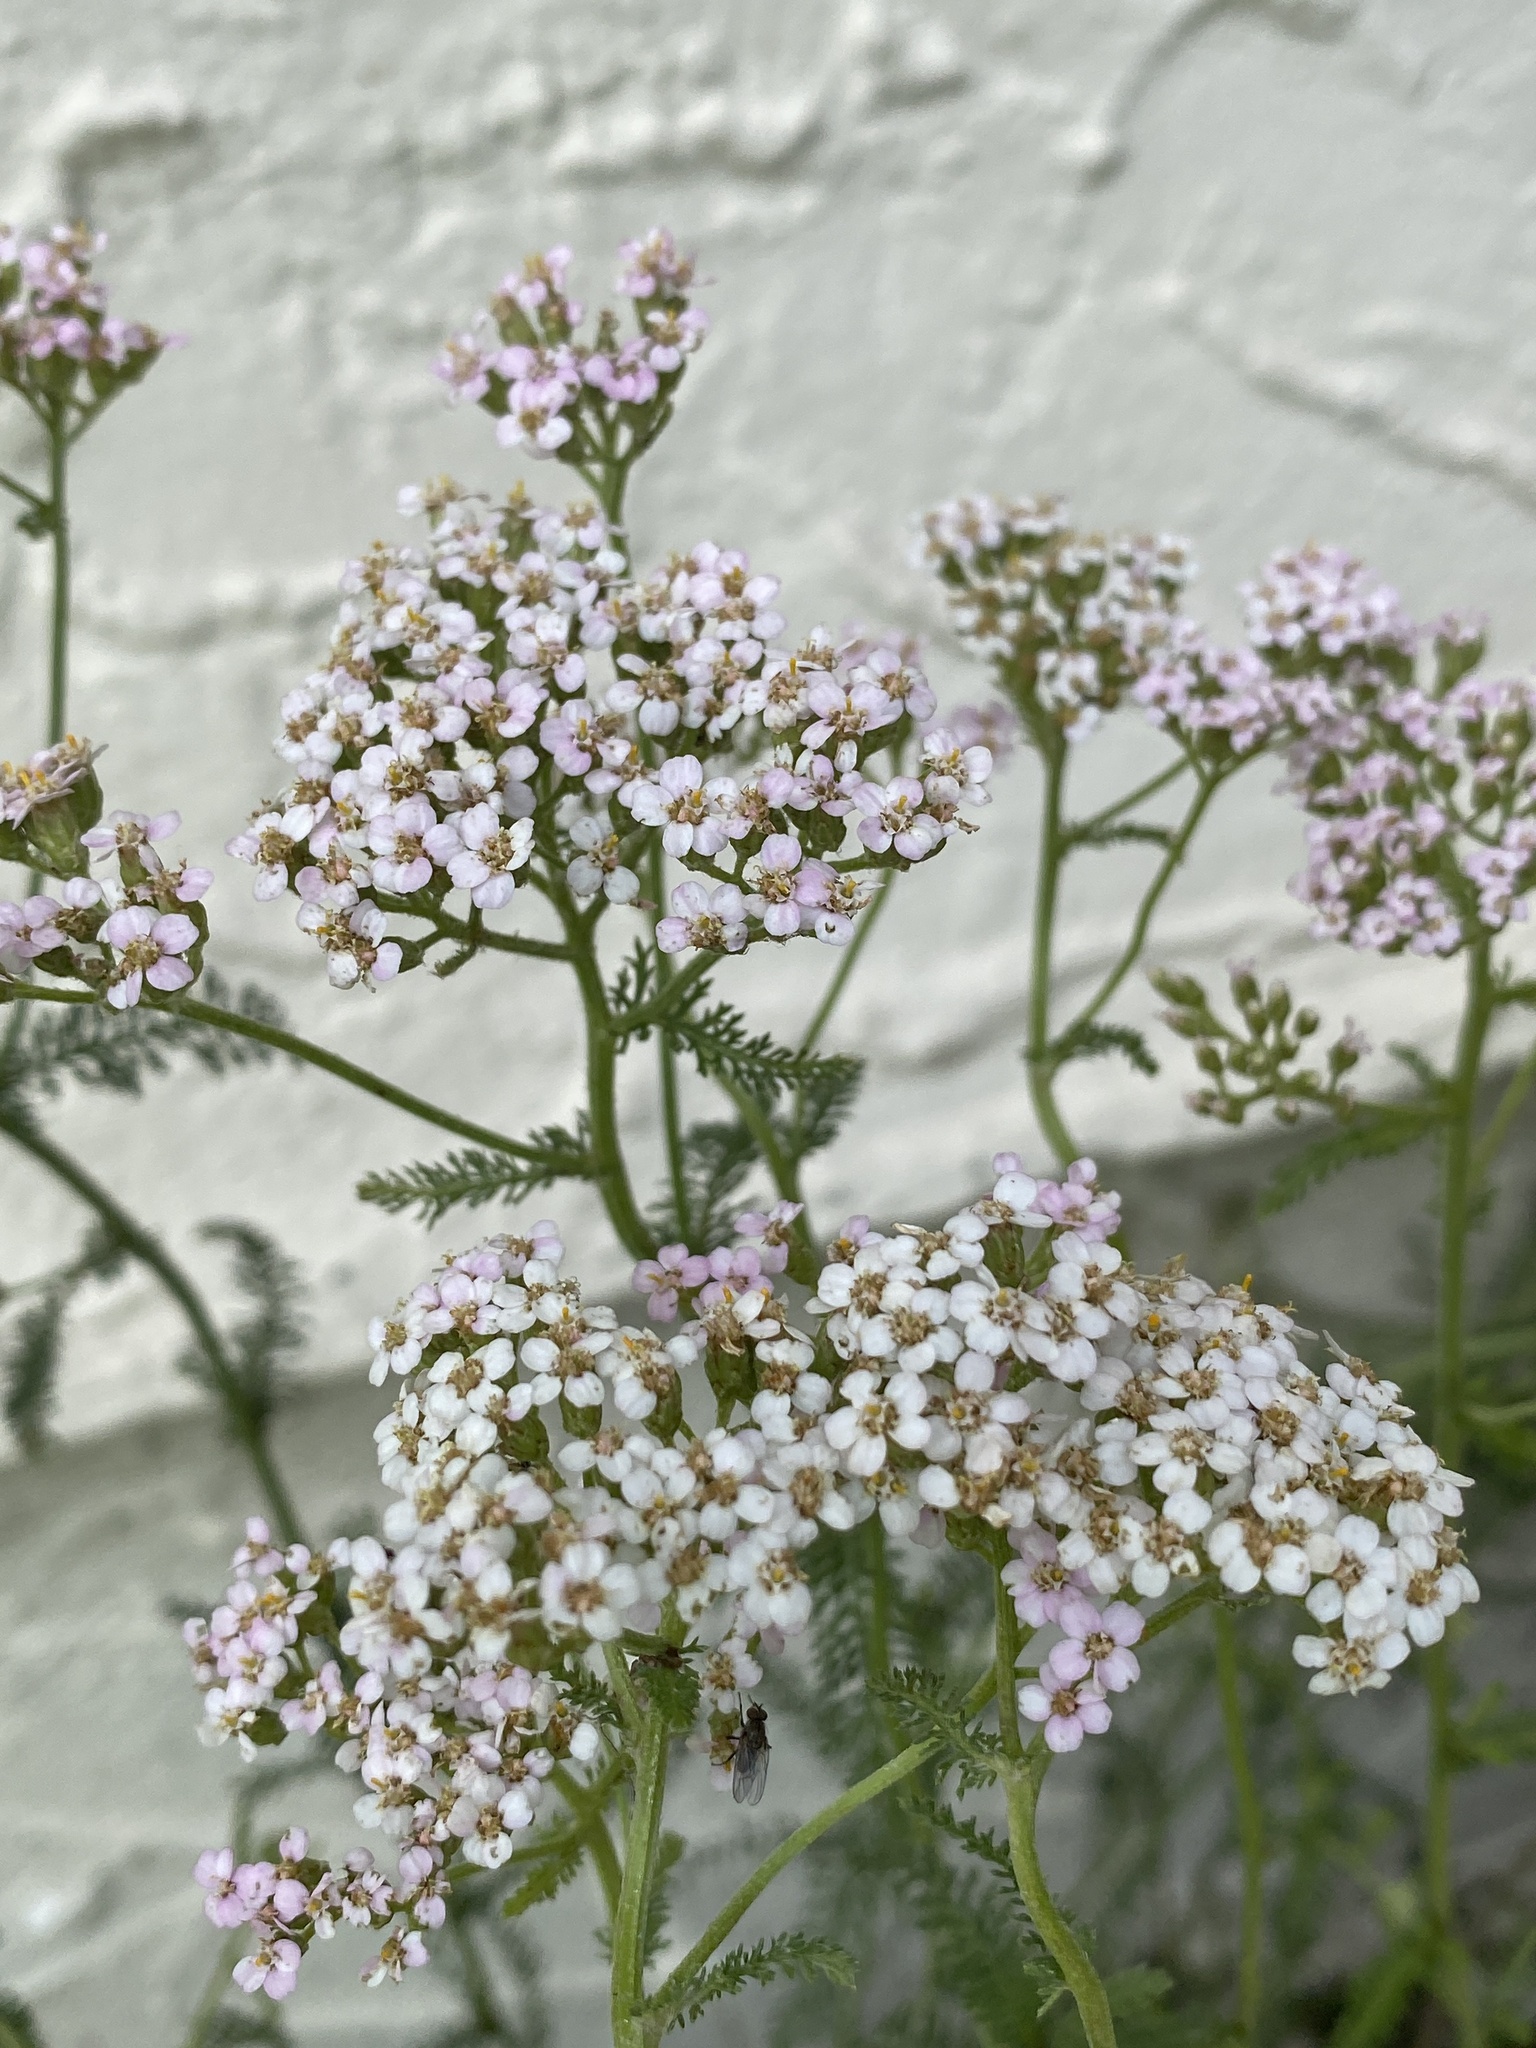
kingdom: Plantae
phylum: Tracheophyta
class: Magnoliopsida
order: Asterales
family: Asteraceae
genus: Achillea
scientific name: Achillea millefolium
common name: Yarrow
